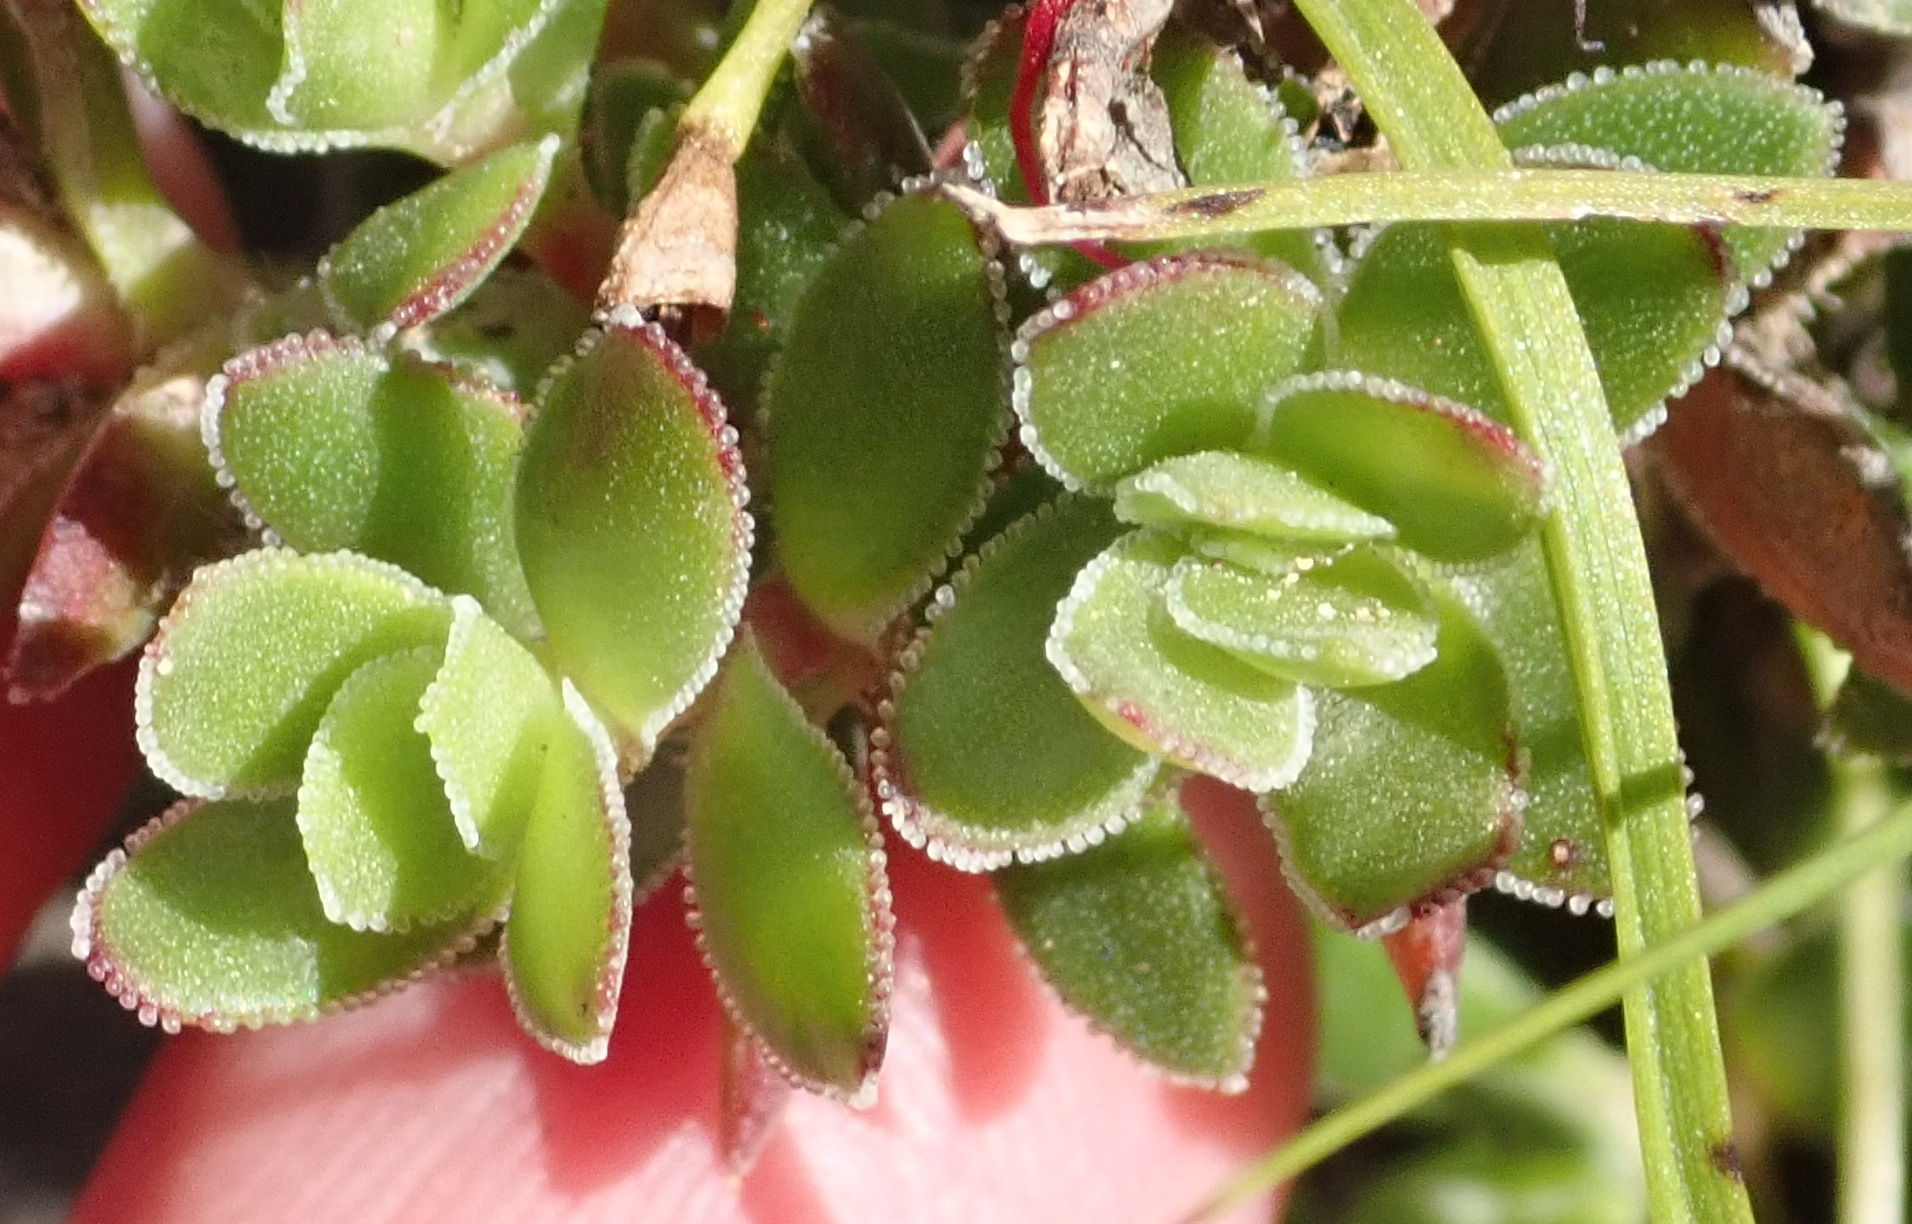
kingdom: Plantae
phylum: Tracheophyta
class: Magnoliopsida
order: Saxifragales
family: Crassulaceae
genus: Crassula
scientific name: Crassula obtusa
